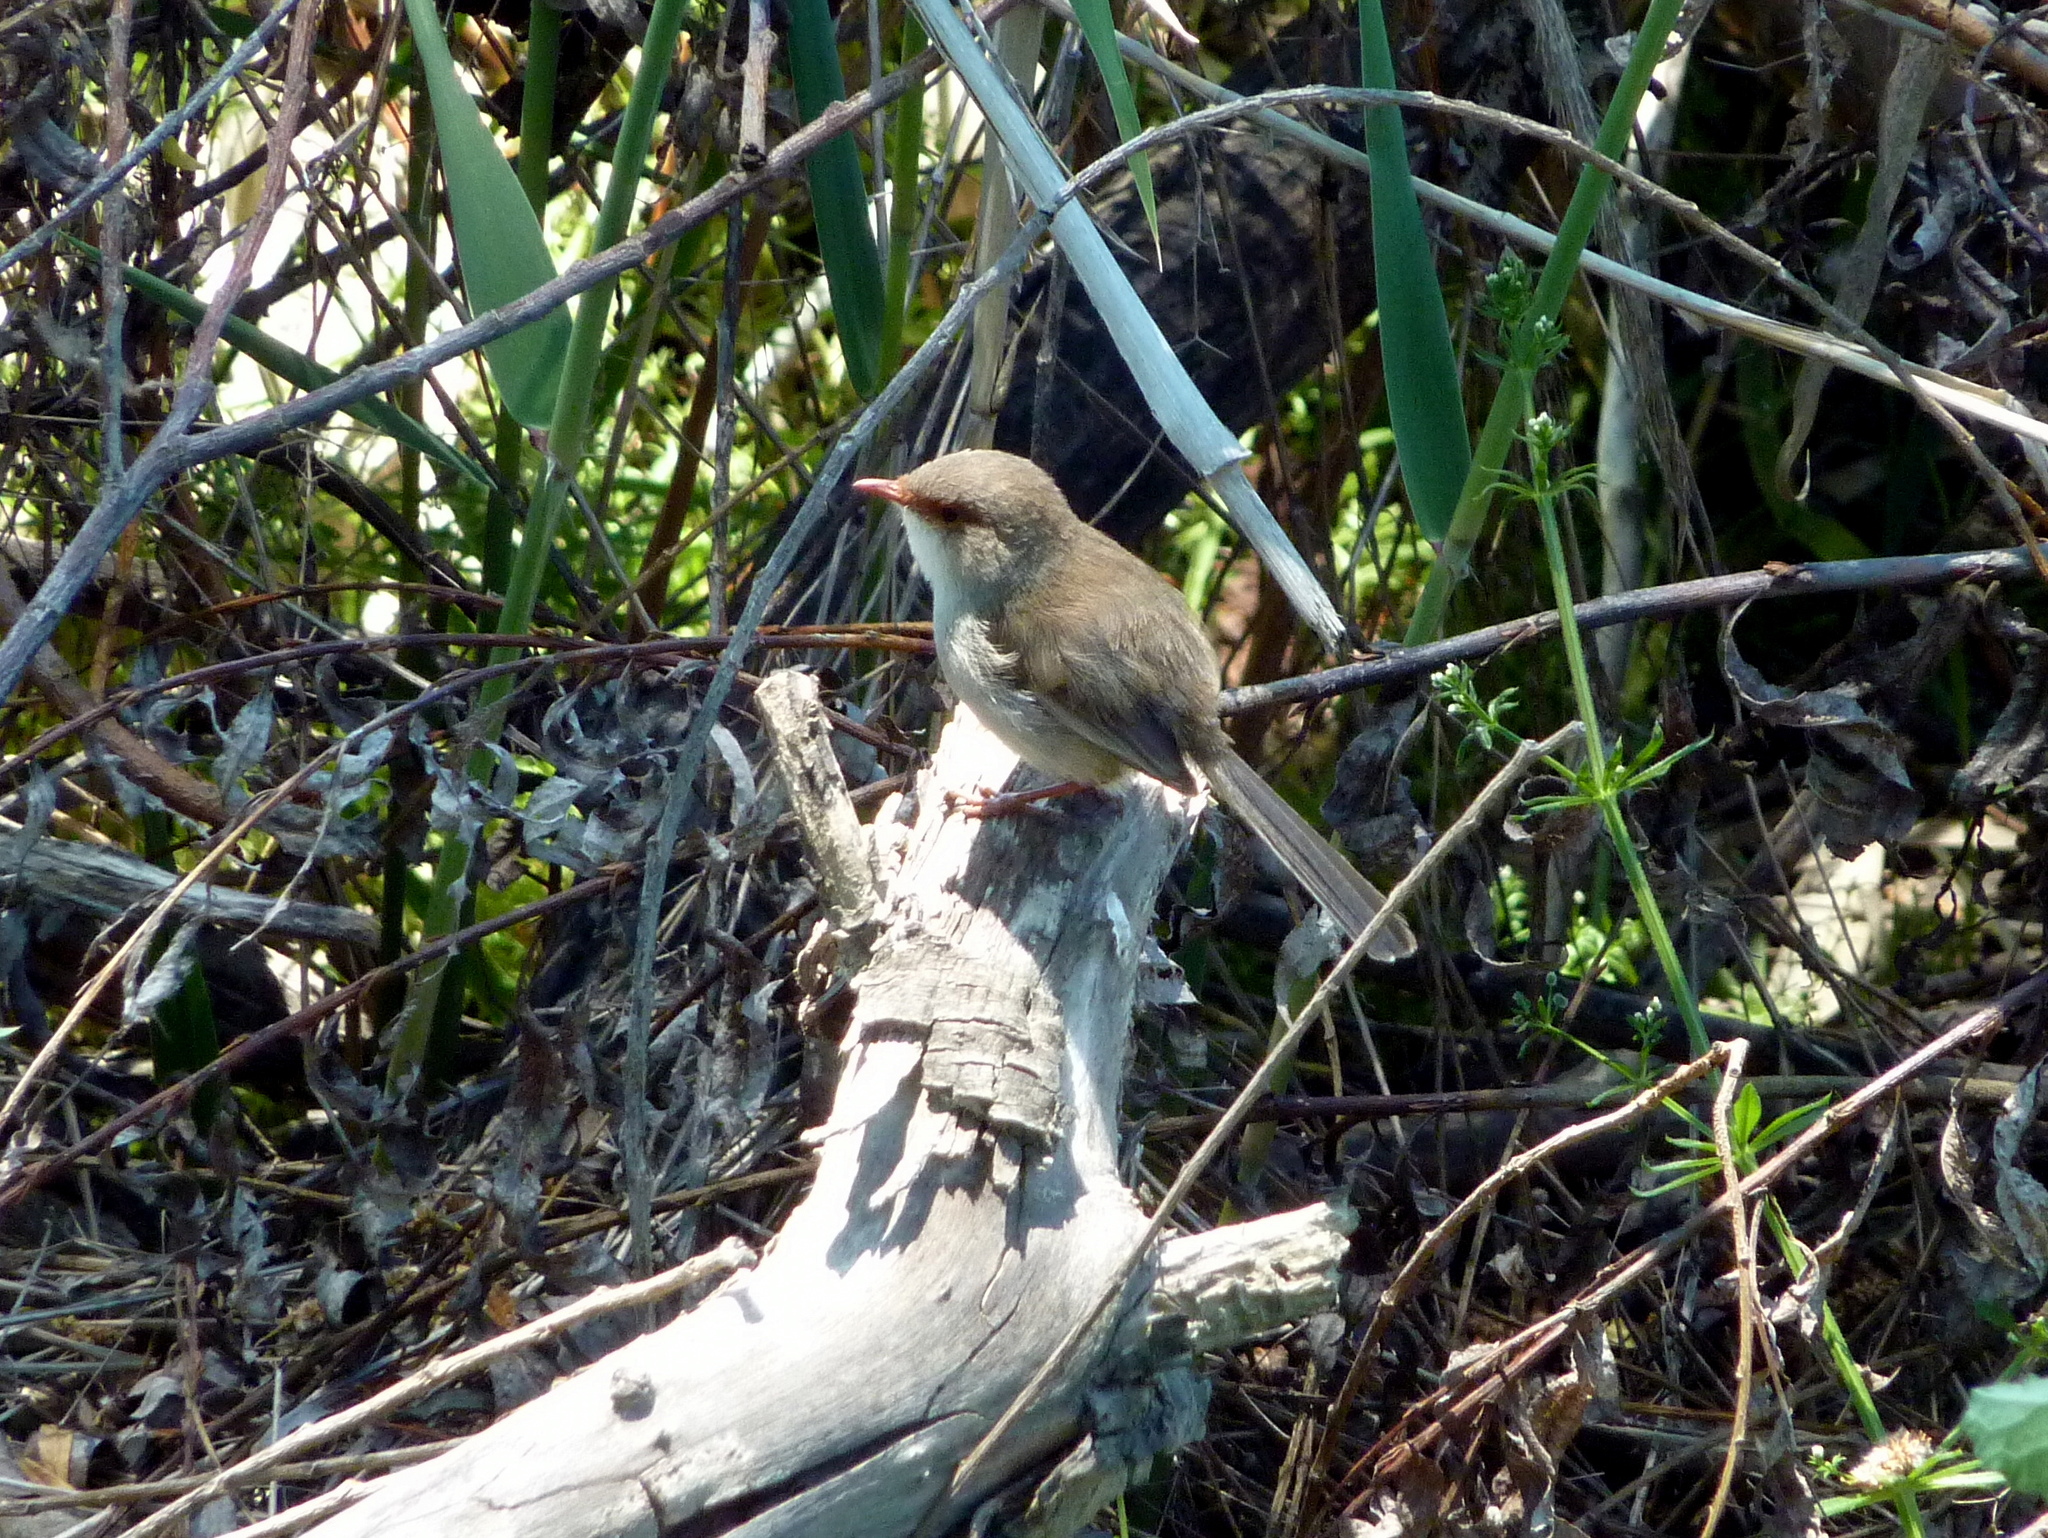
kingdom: Animalia
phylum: Chordata
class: Aves
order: Passeriformes
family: Maluridae
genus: Malurus
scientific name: Malurus cyaneus
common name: Superb fairywren
